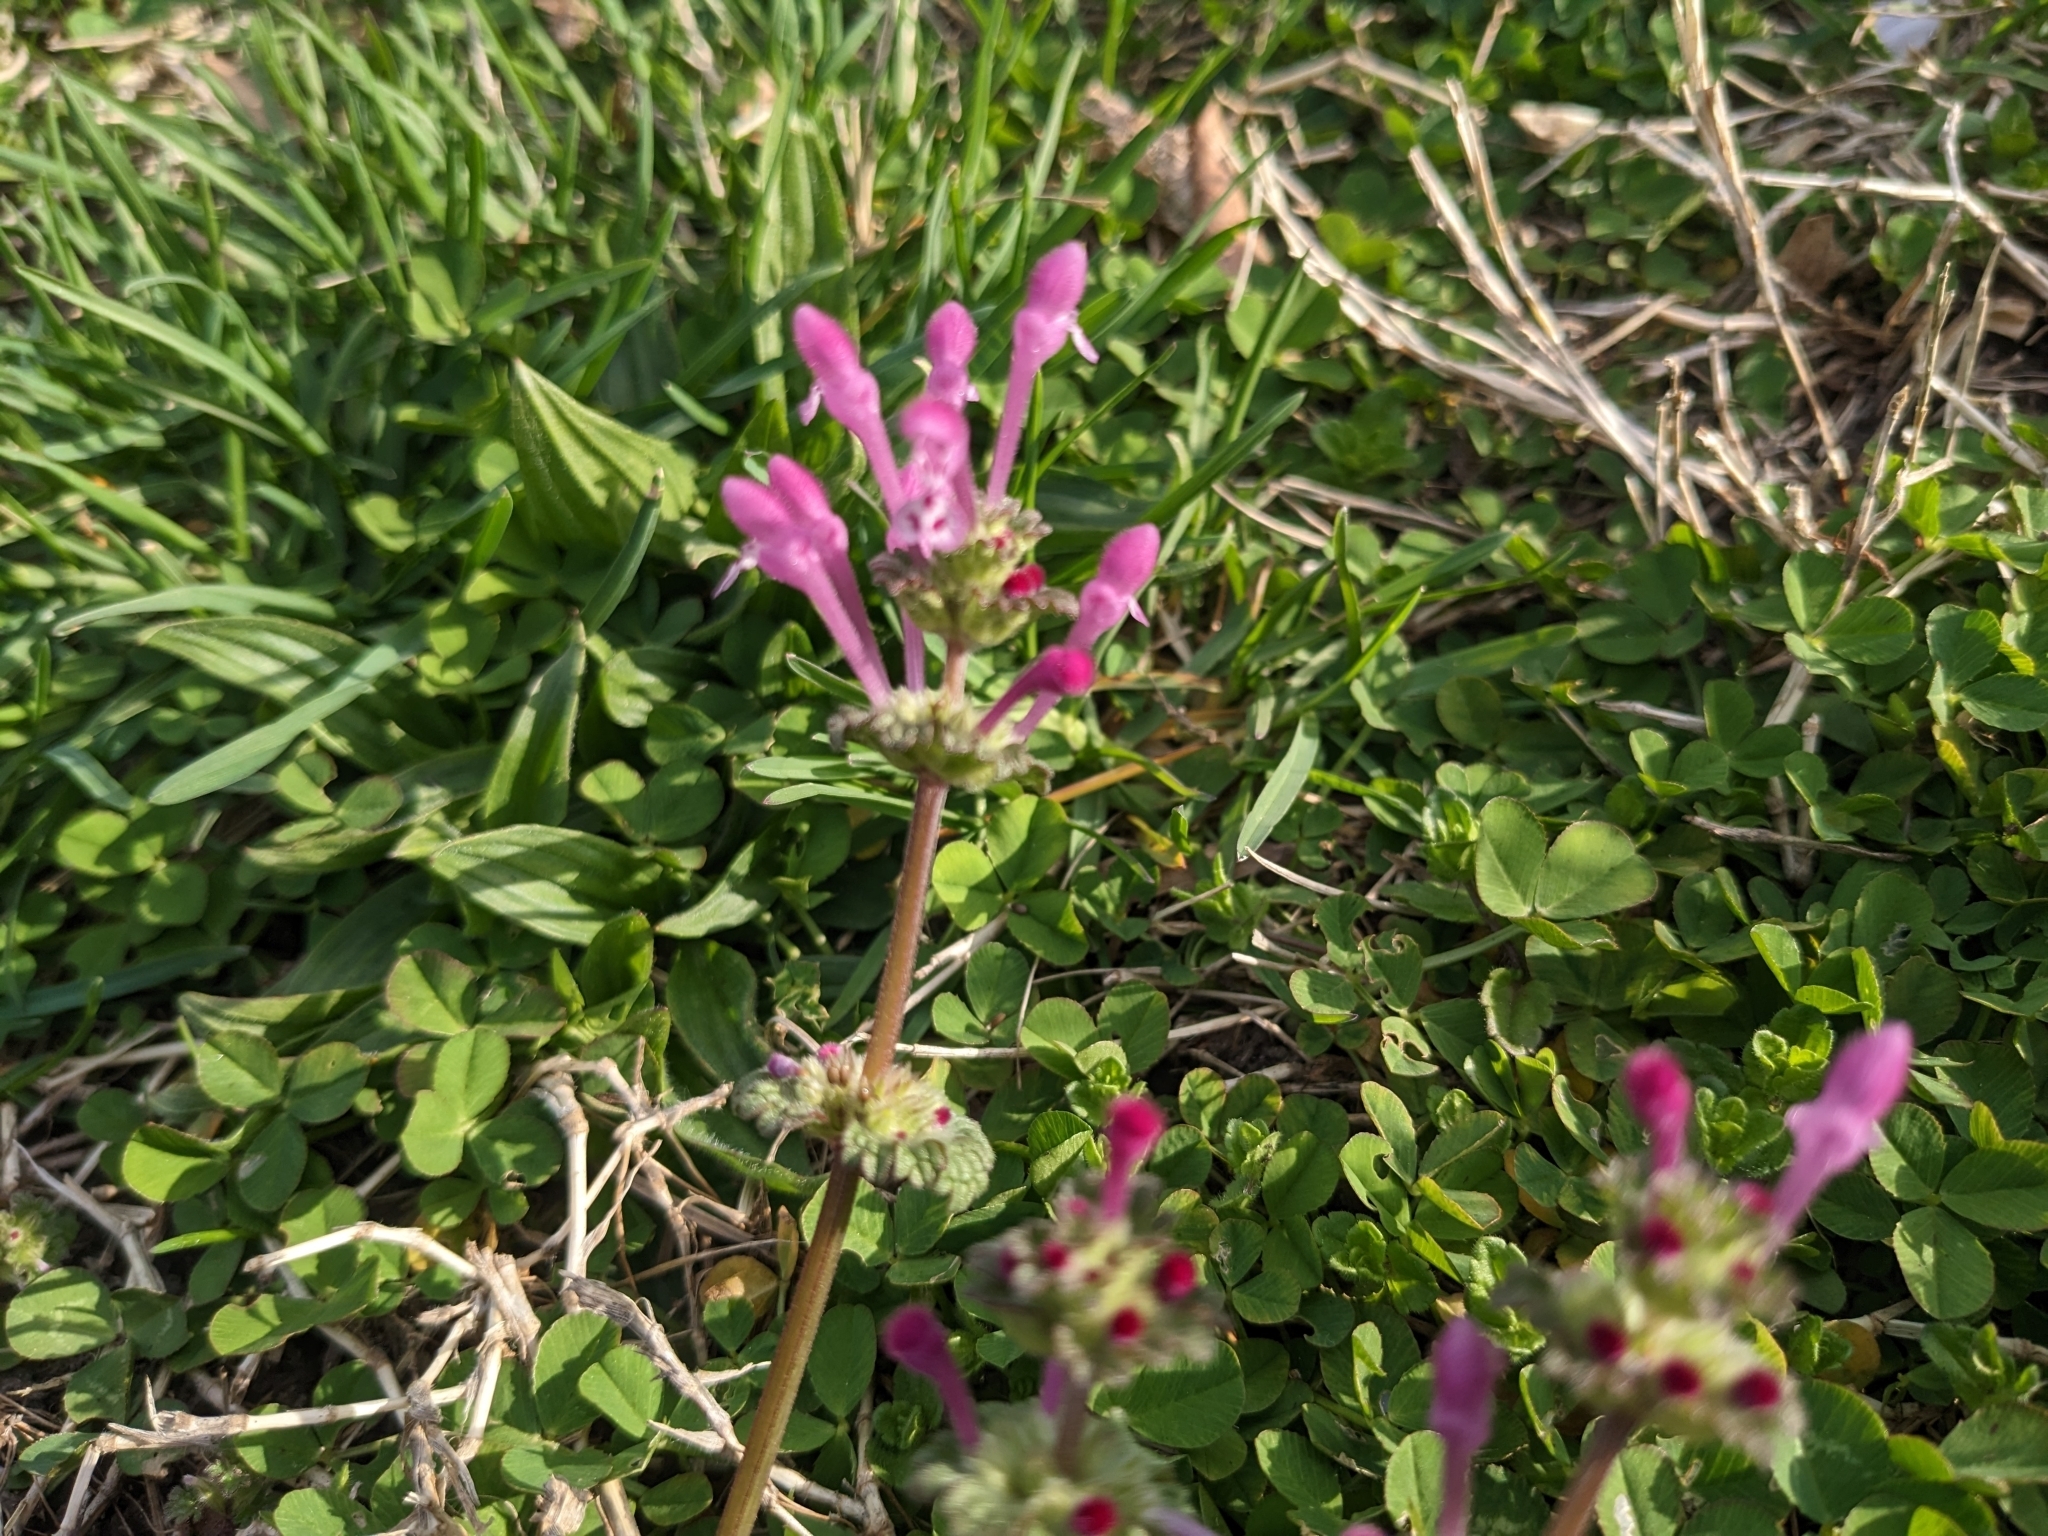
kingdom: Plantae
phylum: Tracheophyta
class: Magnoliopsida
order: Lamiales
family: Lamiaceae
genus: Lamium
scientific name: Lamium amplexicaule
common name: Henbit dead-nettle
